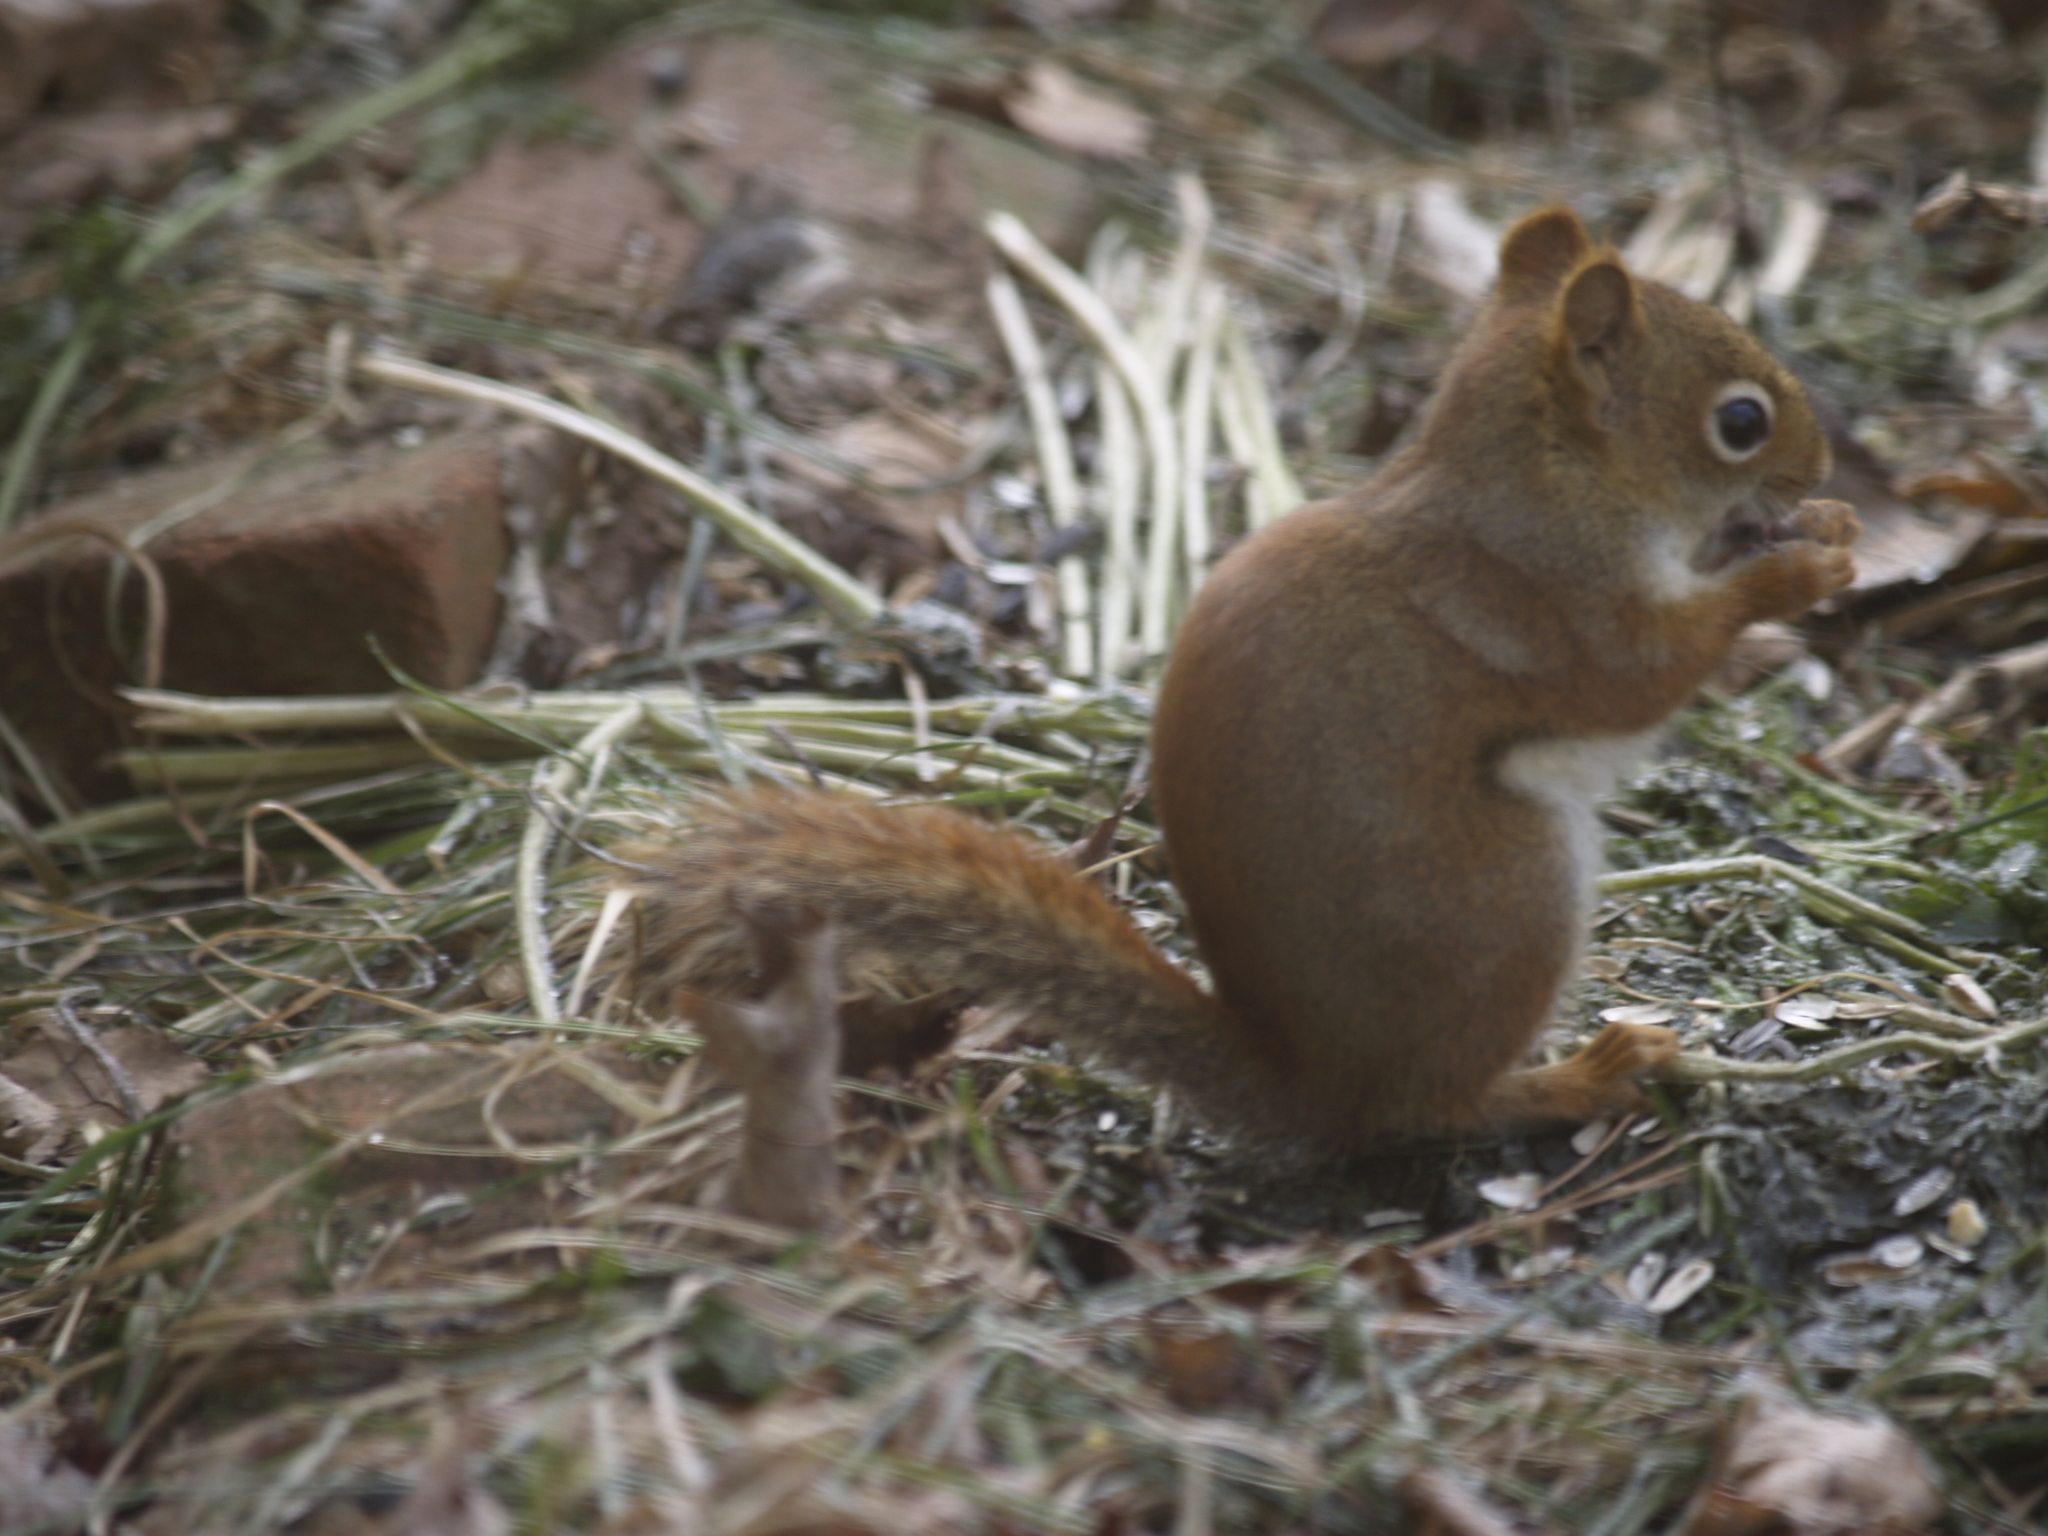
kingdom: Animalia
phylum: Chordata
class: Mammalia
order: Rodentia
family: Sciuridae
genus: Tamiasciurus
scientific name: Tamiasciurus hudsonicus
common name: Red squirrel
